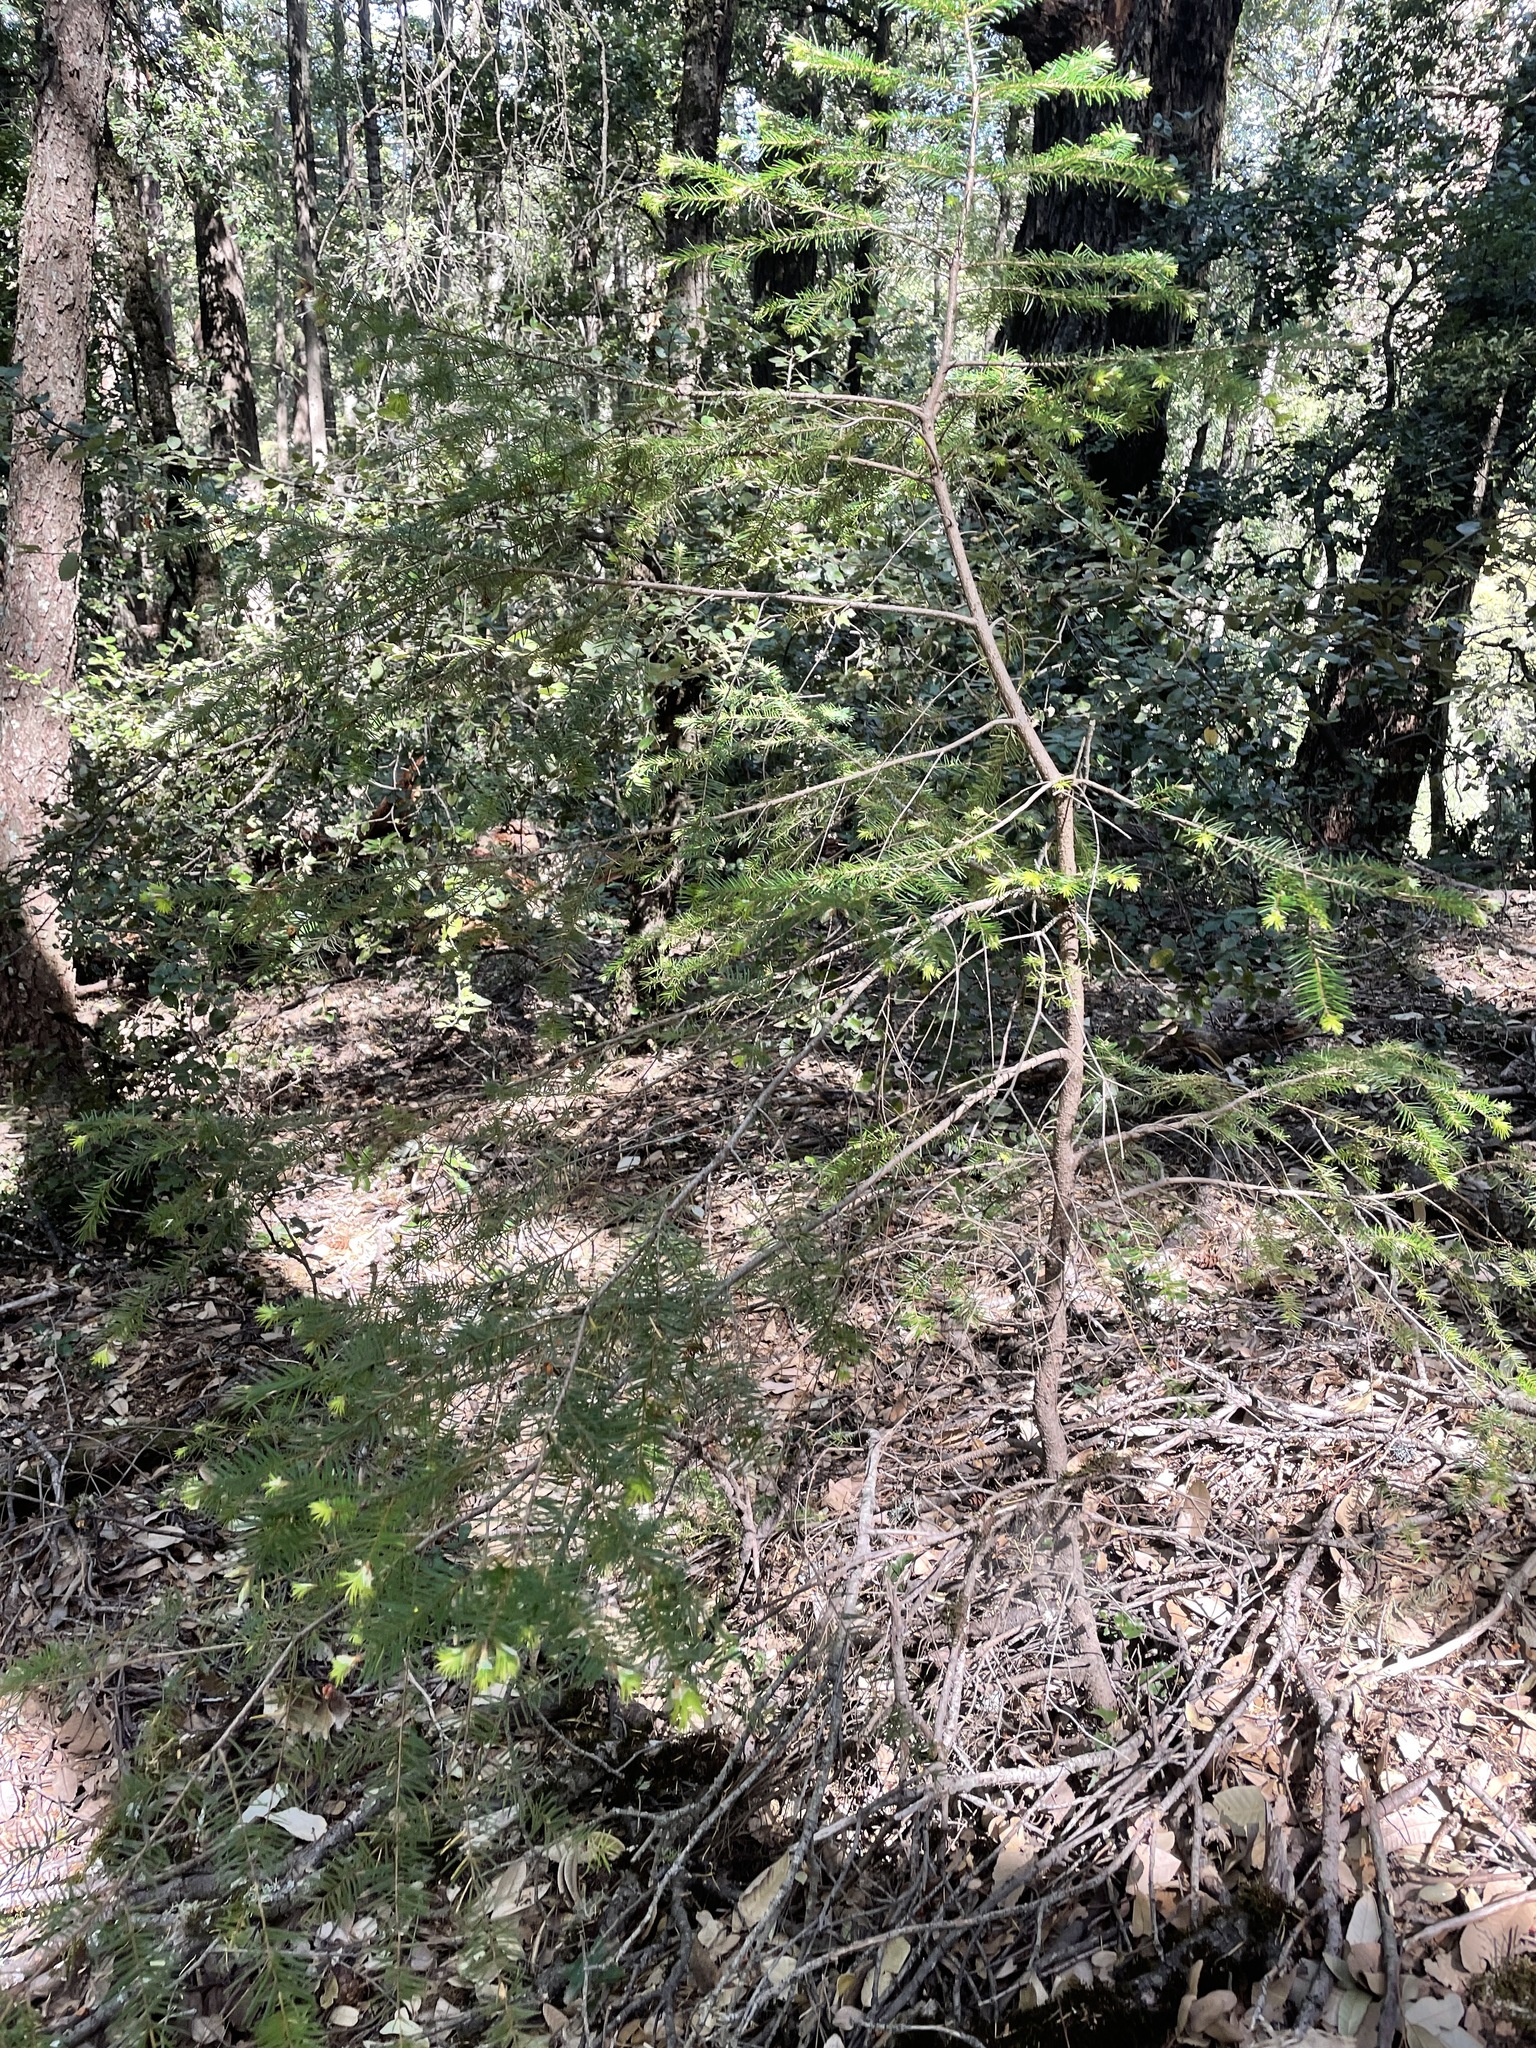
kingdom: Plantae
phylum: Tracheophyta
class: Pinopsida
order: Pinales
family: Pinaceae
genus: Pseudotsuga
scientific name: Pseudotsuga menziesii
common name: Douglas fir
